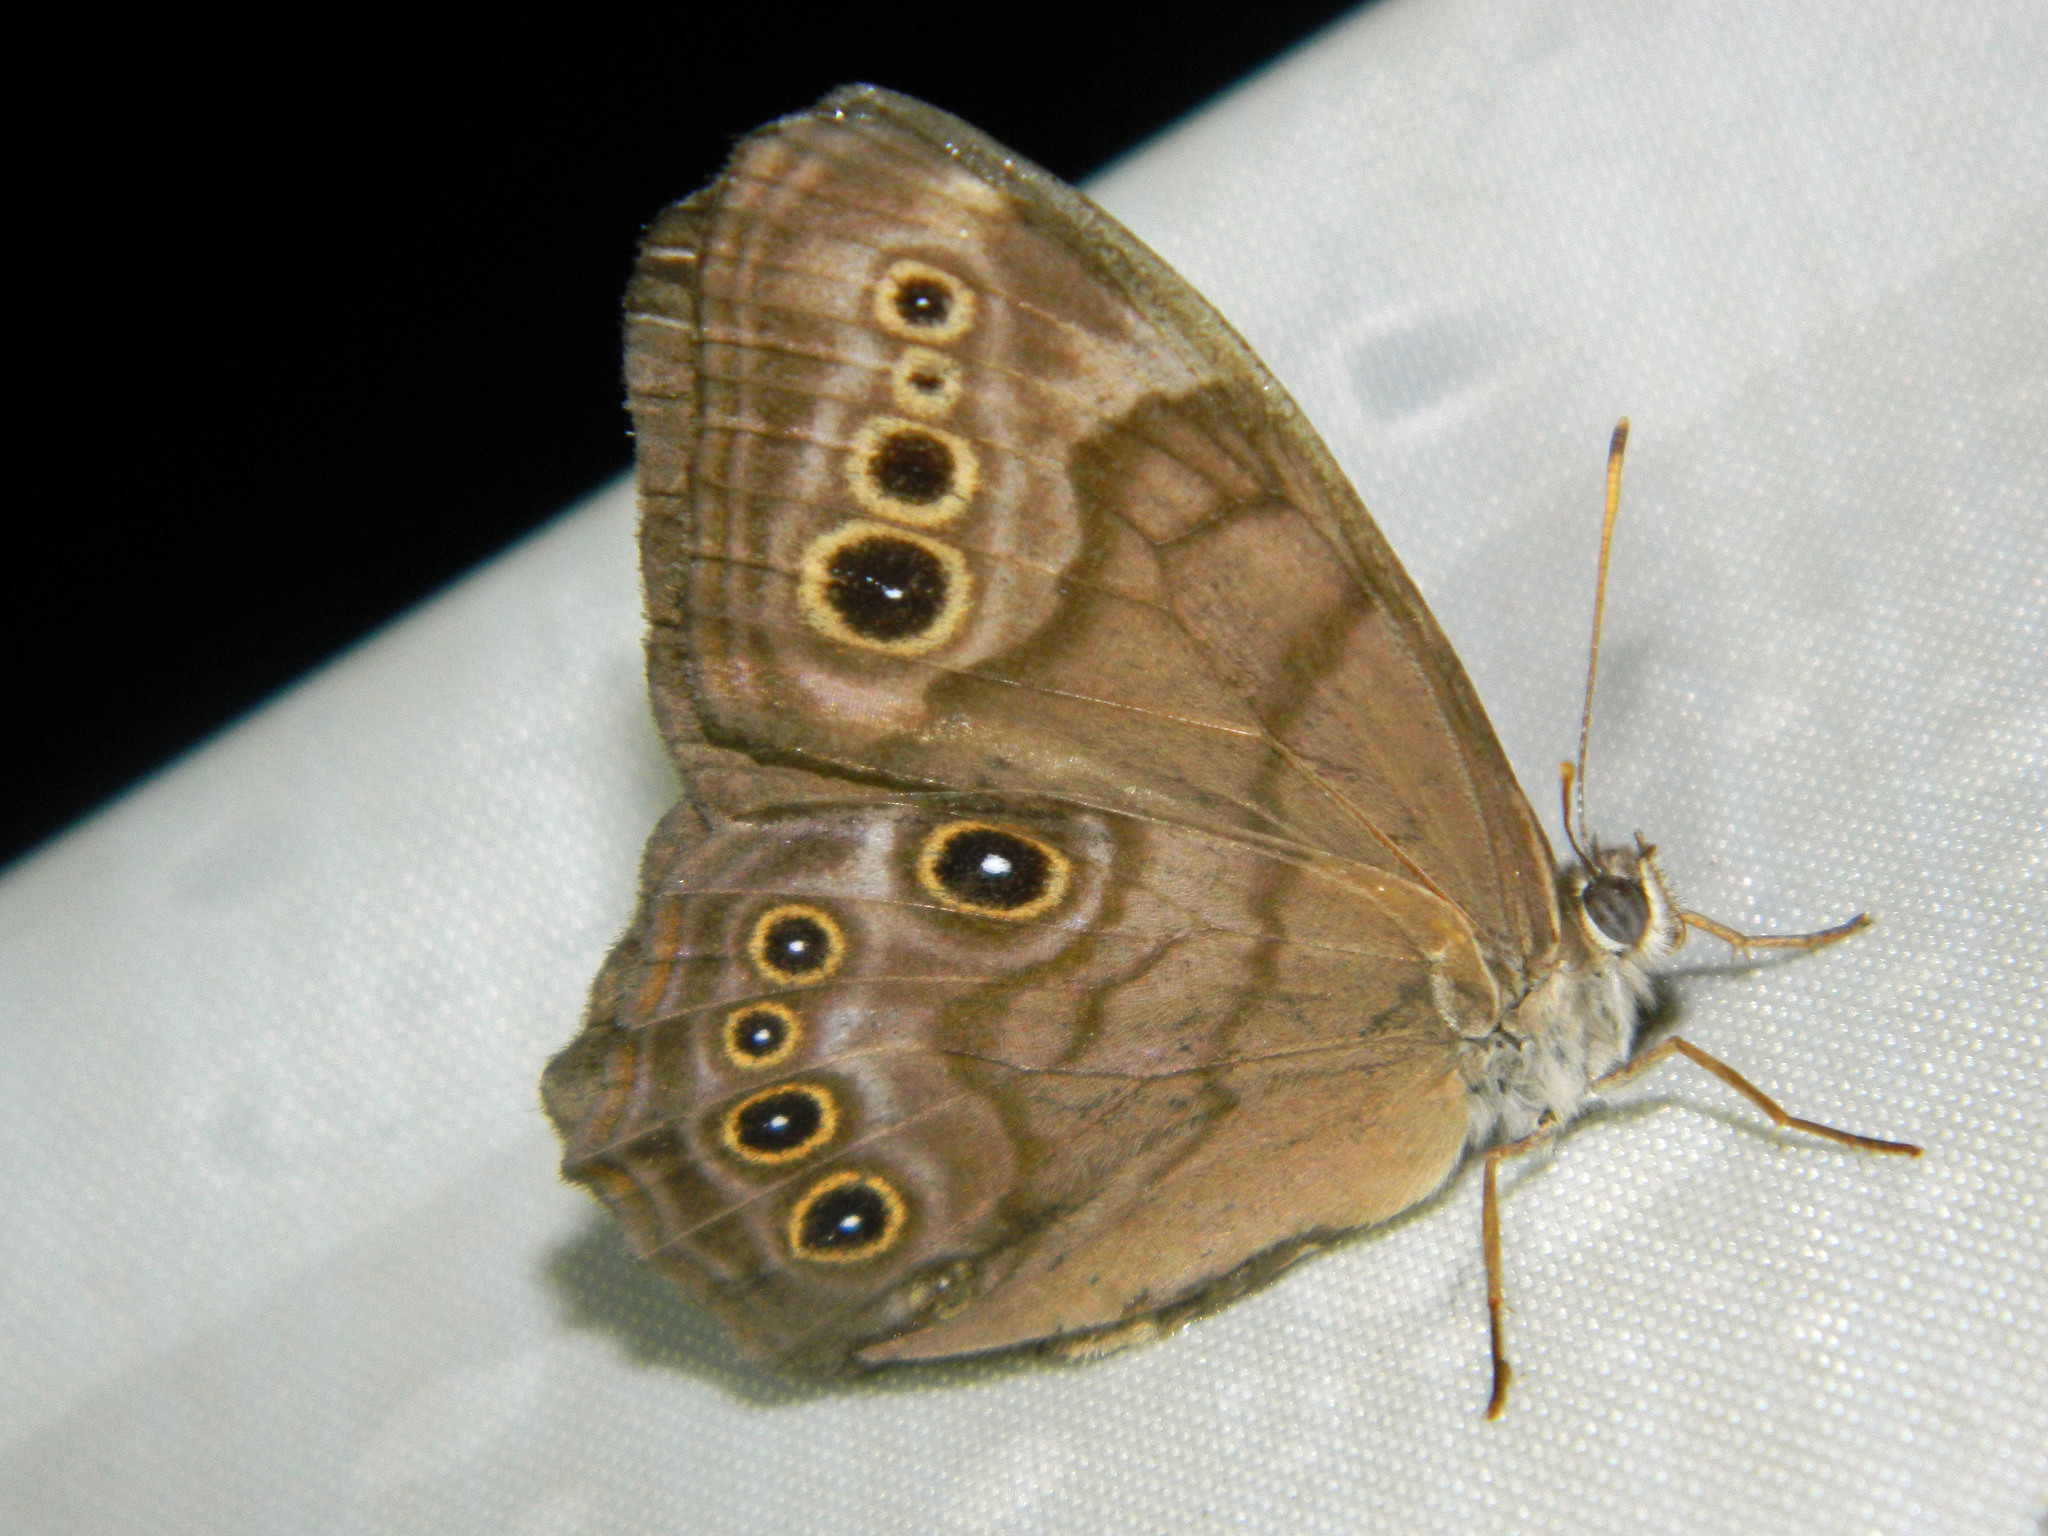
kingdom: Animalia
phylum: Arthropoda
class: Insecta
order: Lepidoptera
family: Nymphalidae
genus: Lethe
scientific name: Lethe anthedon
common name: Northern pearly-eye
